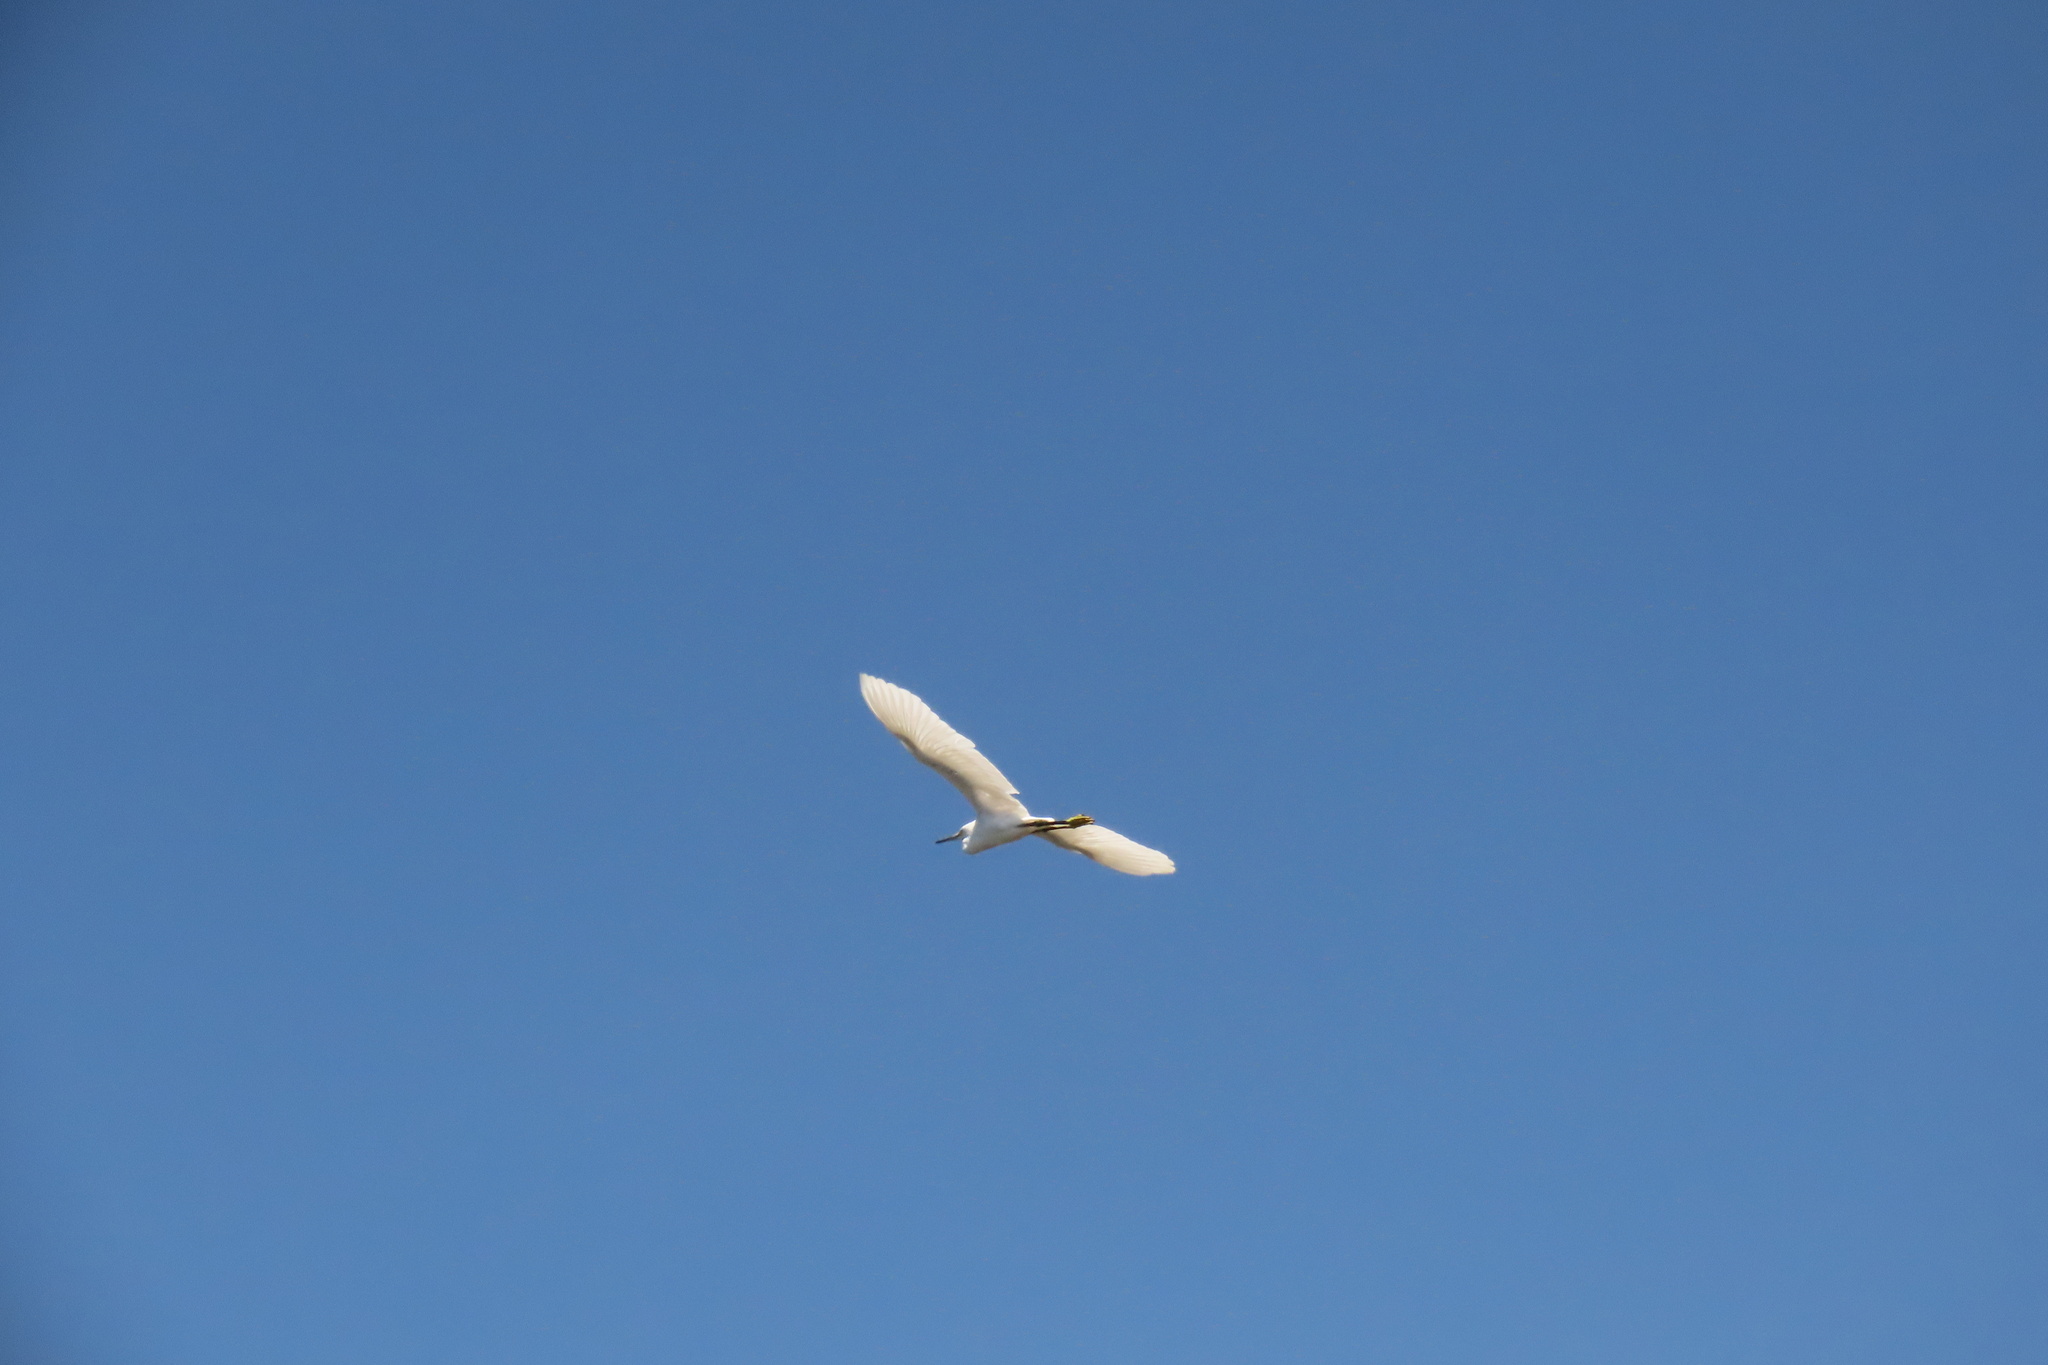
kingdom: Animalia
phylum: Chordata
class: Aves
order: Pelecaniformes
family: Ardeidae
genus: Egretta
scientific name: Egretta thula
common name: Snowy egret
